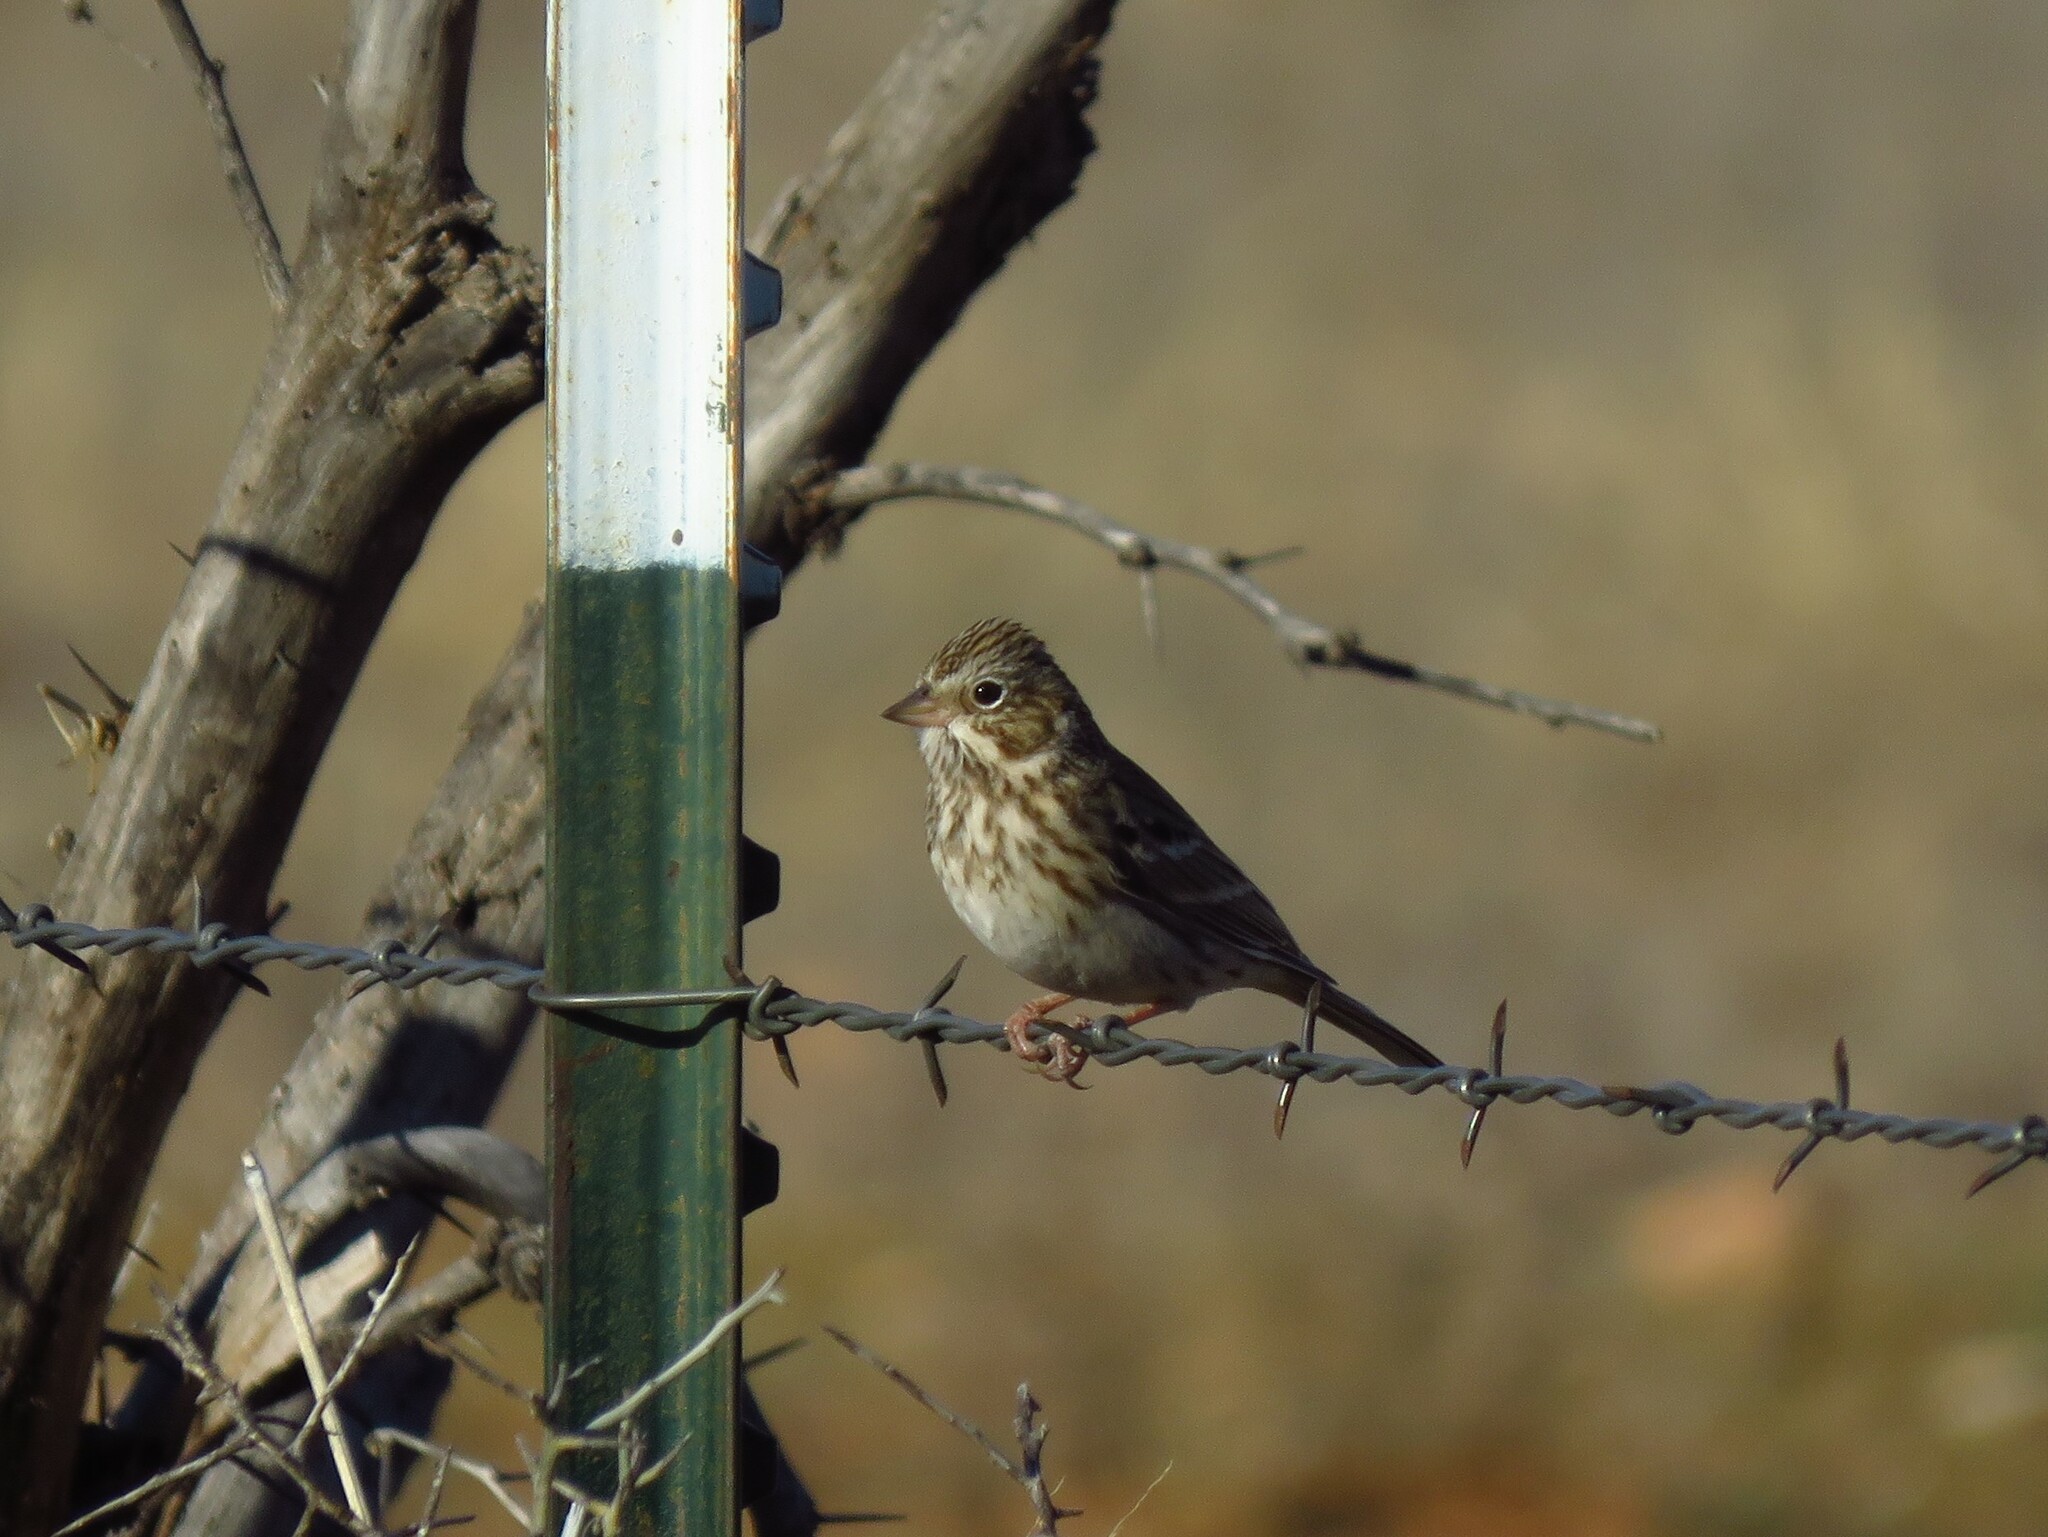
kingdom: Animalia
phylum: Chordata
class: Aves
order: Passeriformes
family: Passerellidae
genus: Pooecetes
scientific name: Pooecetes gramineus
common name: Vesper sparrow
